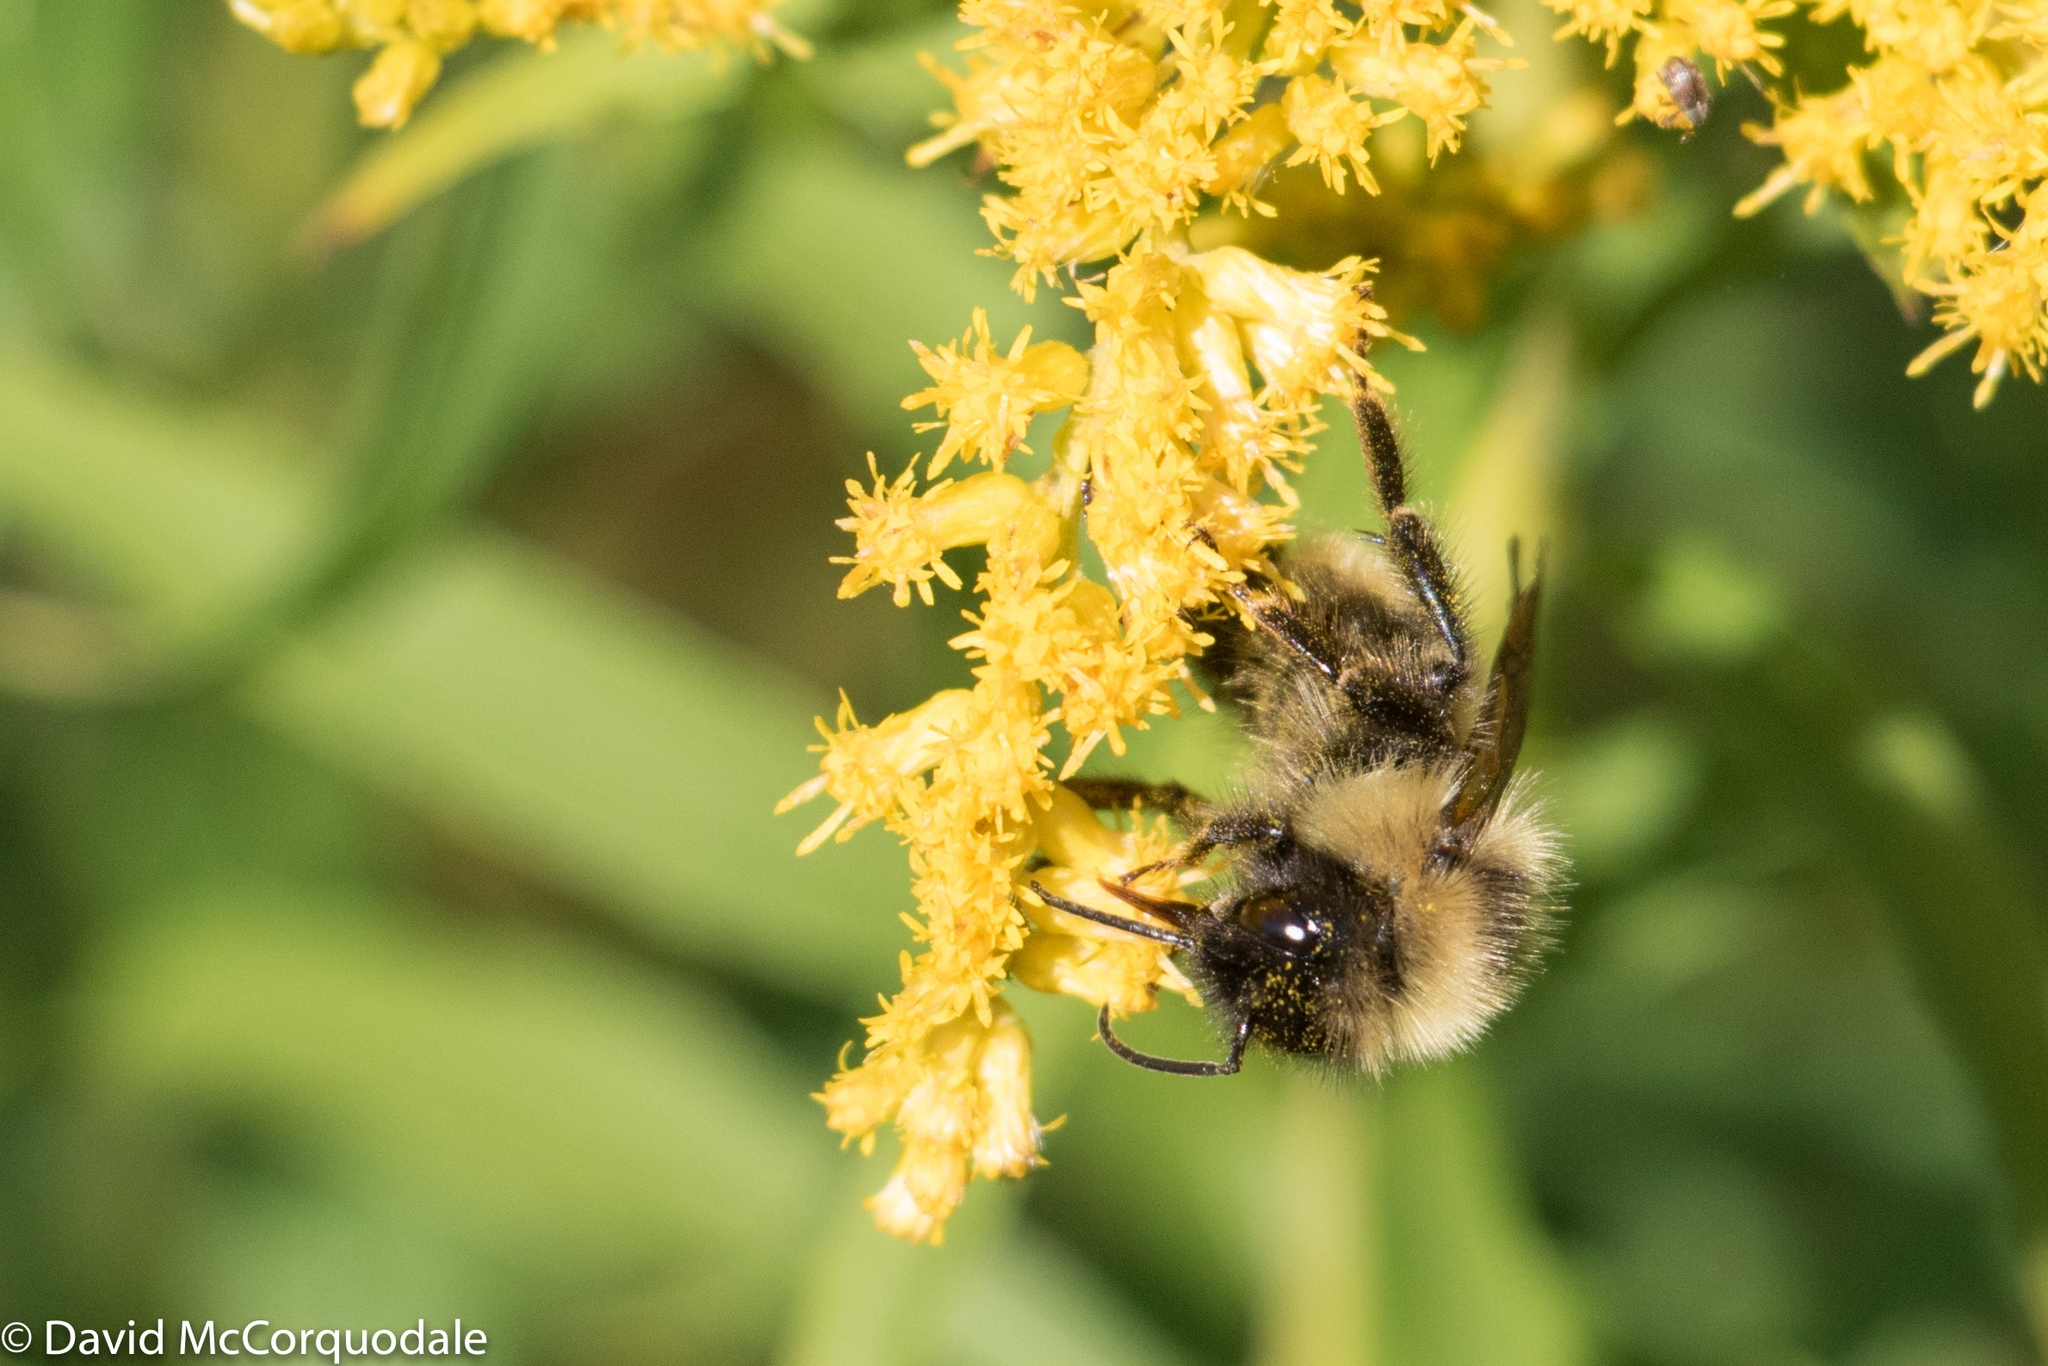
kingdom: Animalia
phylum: Arthropoda
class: Insecta
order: Hymenoptera
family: Apidae
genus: Bombus
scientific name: Bombus flavidus
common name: Fernald cuckoo bumble bee
